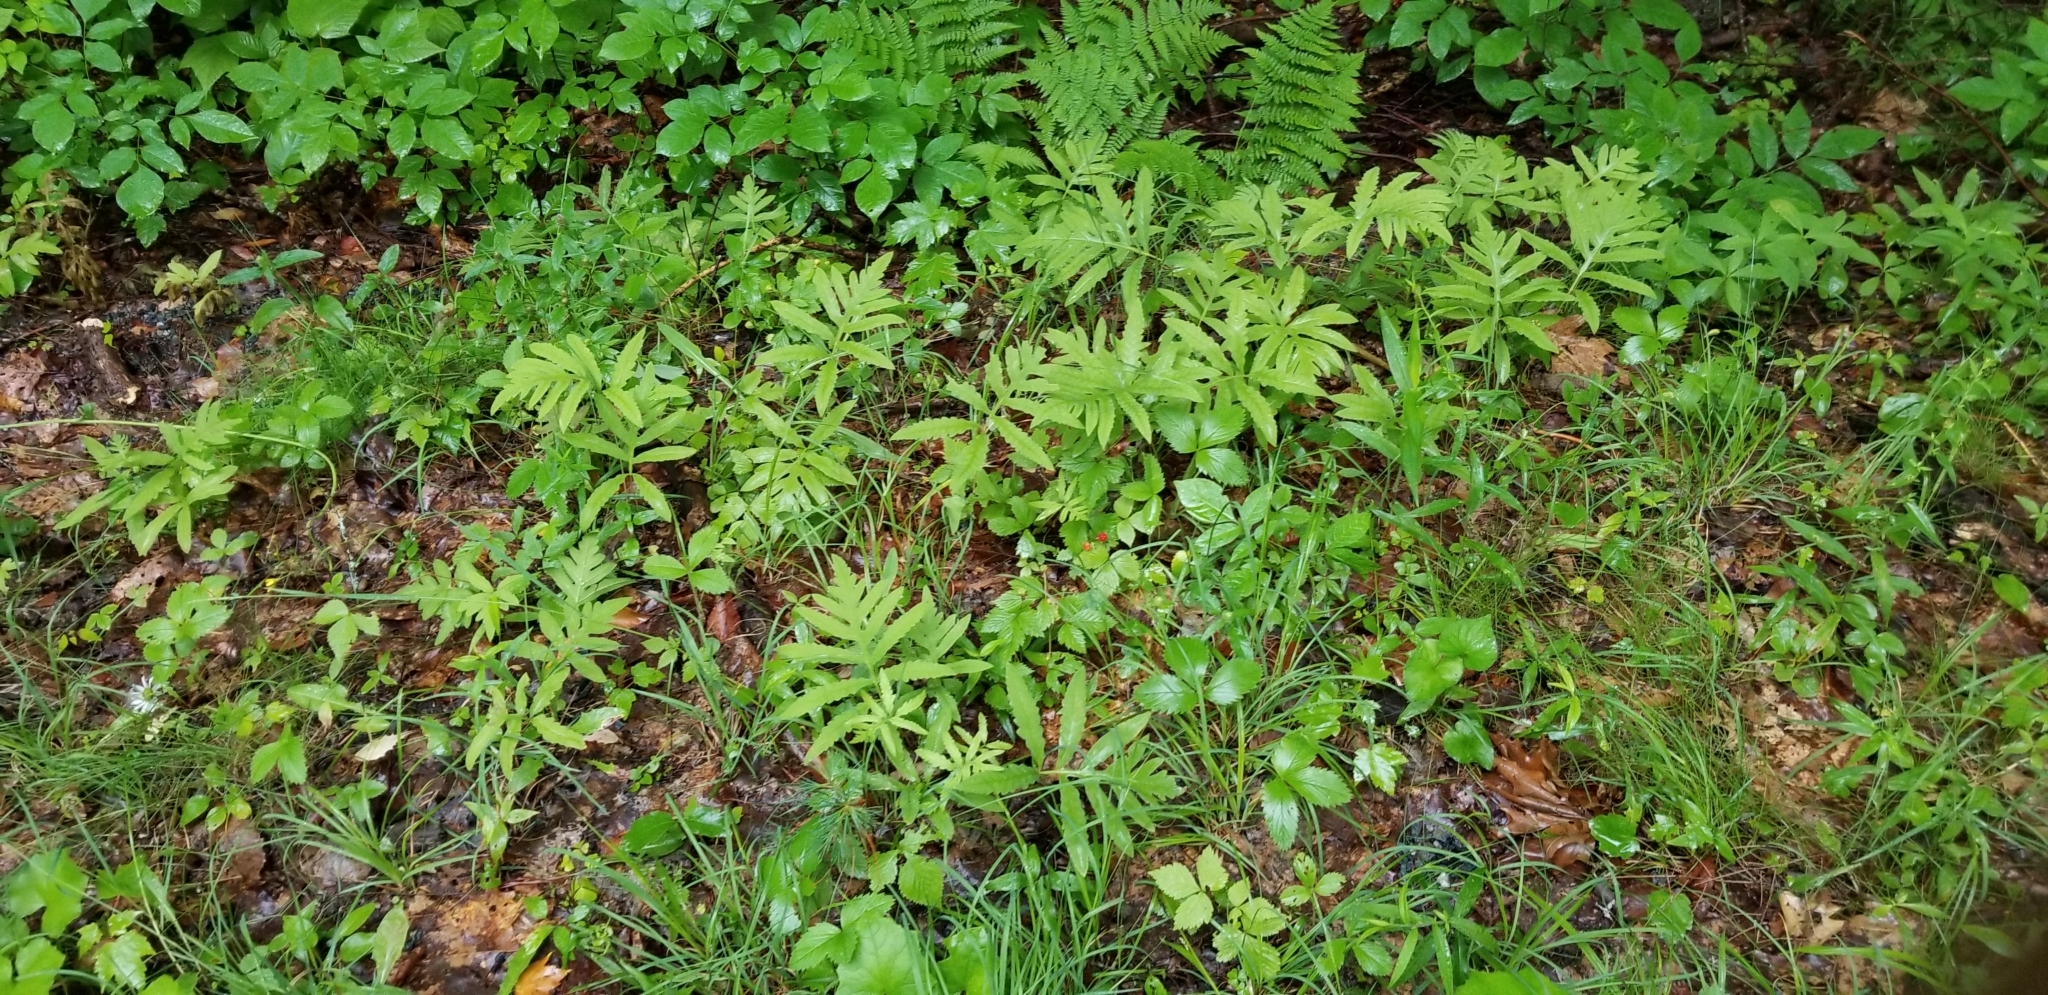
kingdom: Plantae
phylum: Tracheophyta
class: Polypodiopsida
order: Polypodiales
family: Onocleaceae
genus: Onoclea
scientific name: Onoclea sensibilis
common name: Sensitive fern
